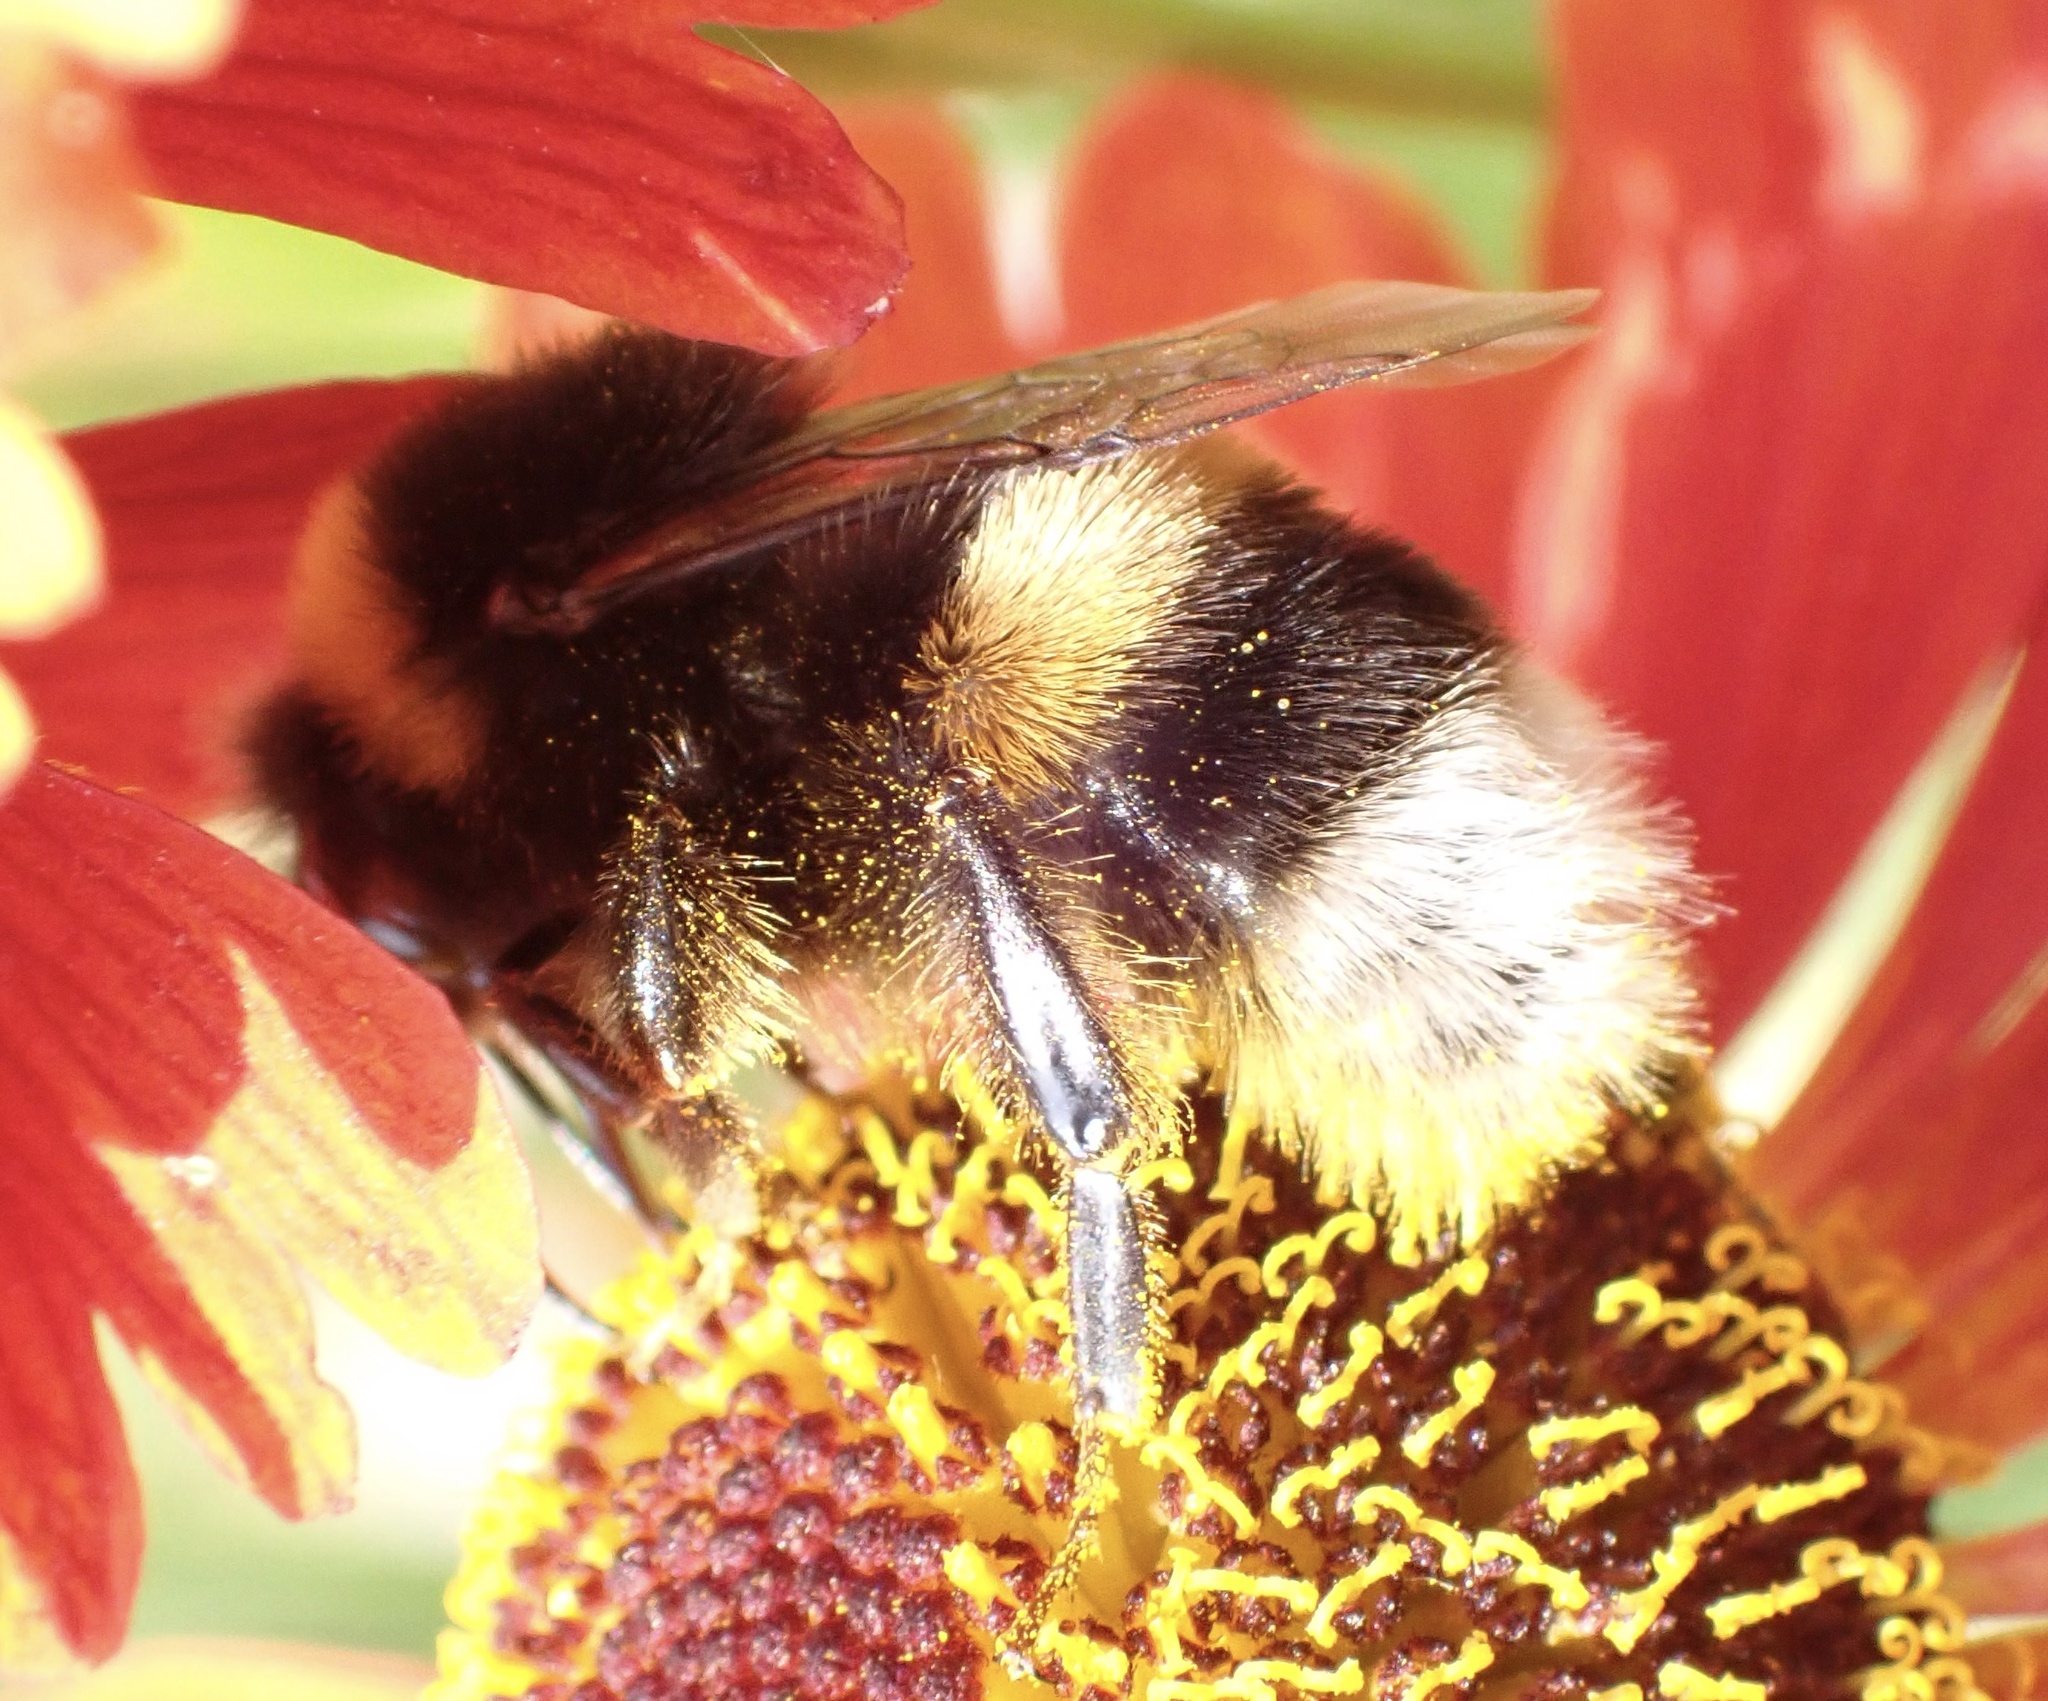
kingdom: Animalia
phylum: Arthropoda
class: Insecta
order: Hymenoptera
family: Apidae
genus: Bombus
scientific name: Bombus terrestris
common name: Buff-tailed bumblebee
